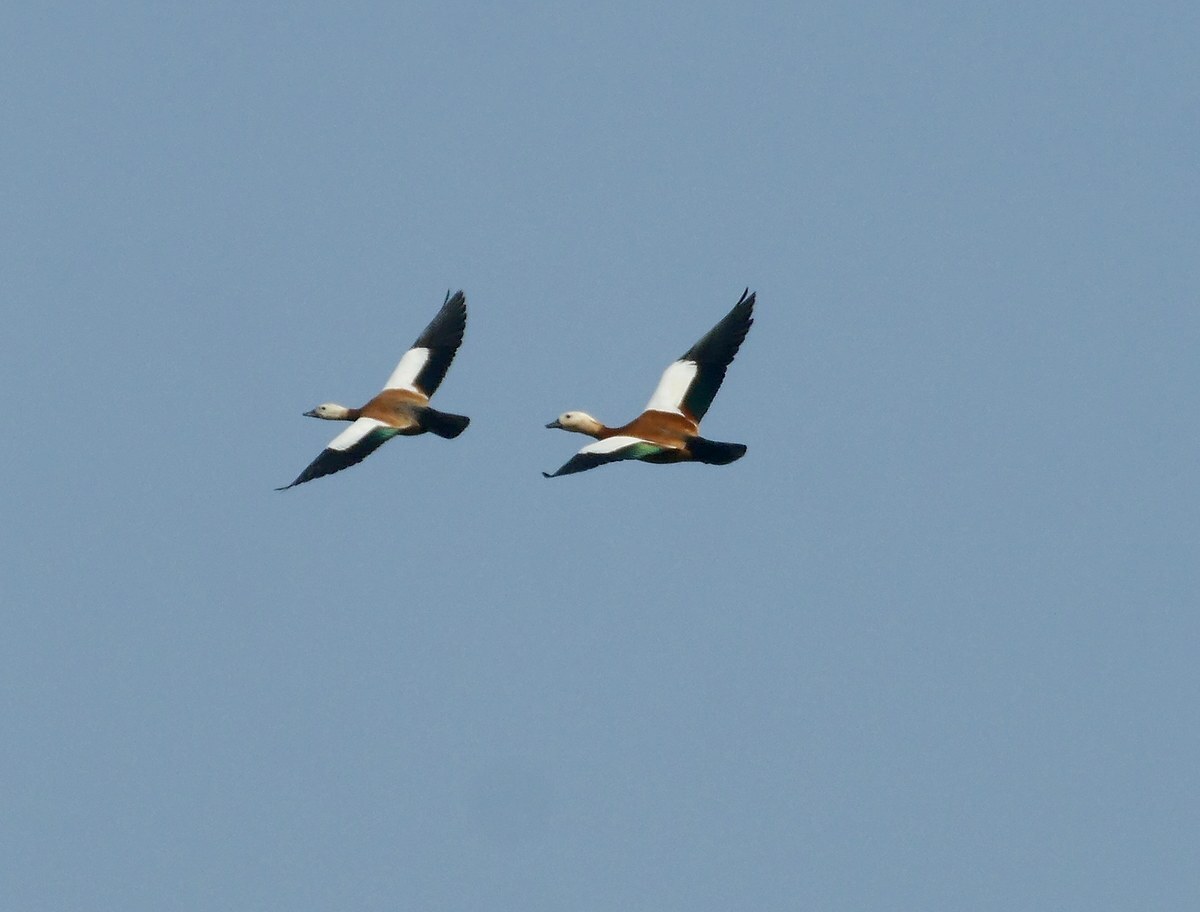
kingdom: Animalia
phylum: Chordata
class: Aves
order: Anseriformes
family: Anatidae
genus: Tadorna
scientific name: Tadorna ferruginea
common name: Ruddy shelduck
